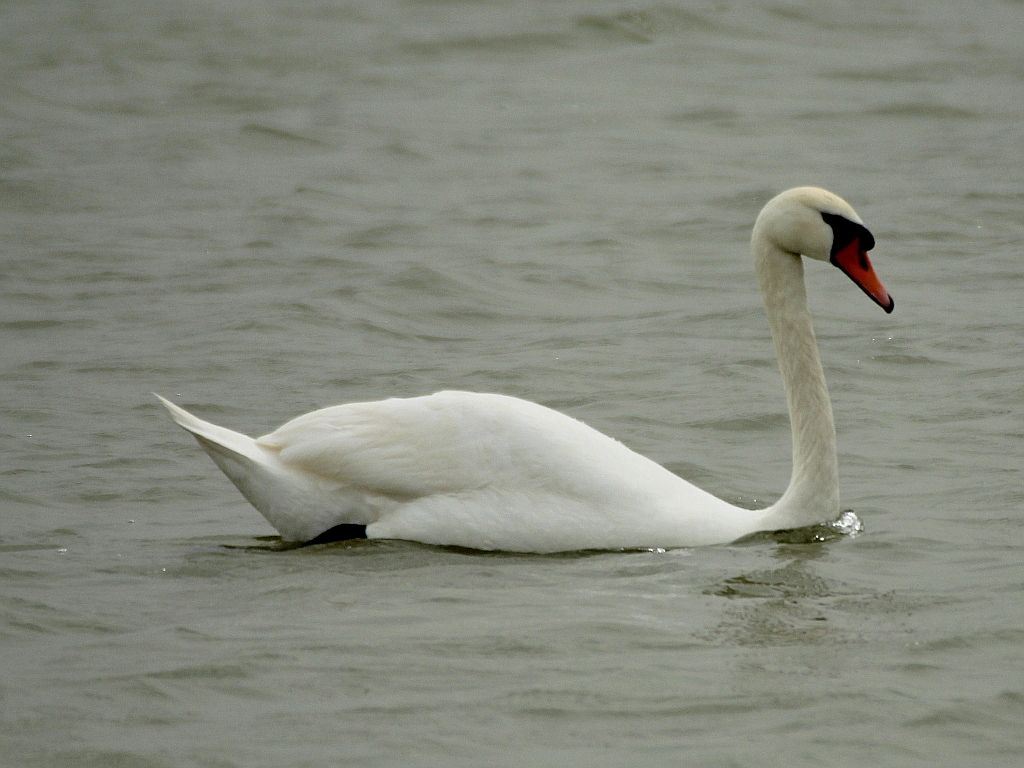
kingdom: Animalia
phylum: Chordata
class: Aves
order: Anseriformes
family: Anatidae
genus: Cygnus
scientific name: Cygnus olor
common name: Mute swan
